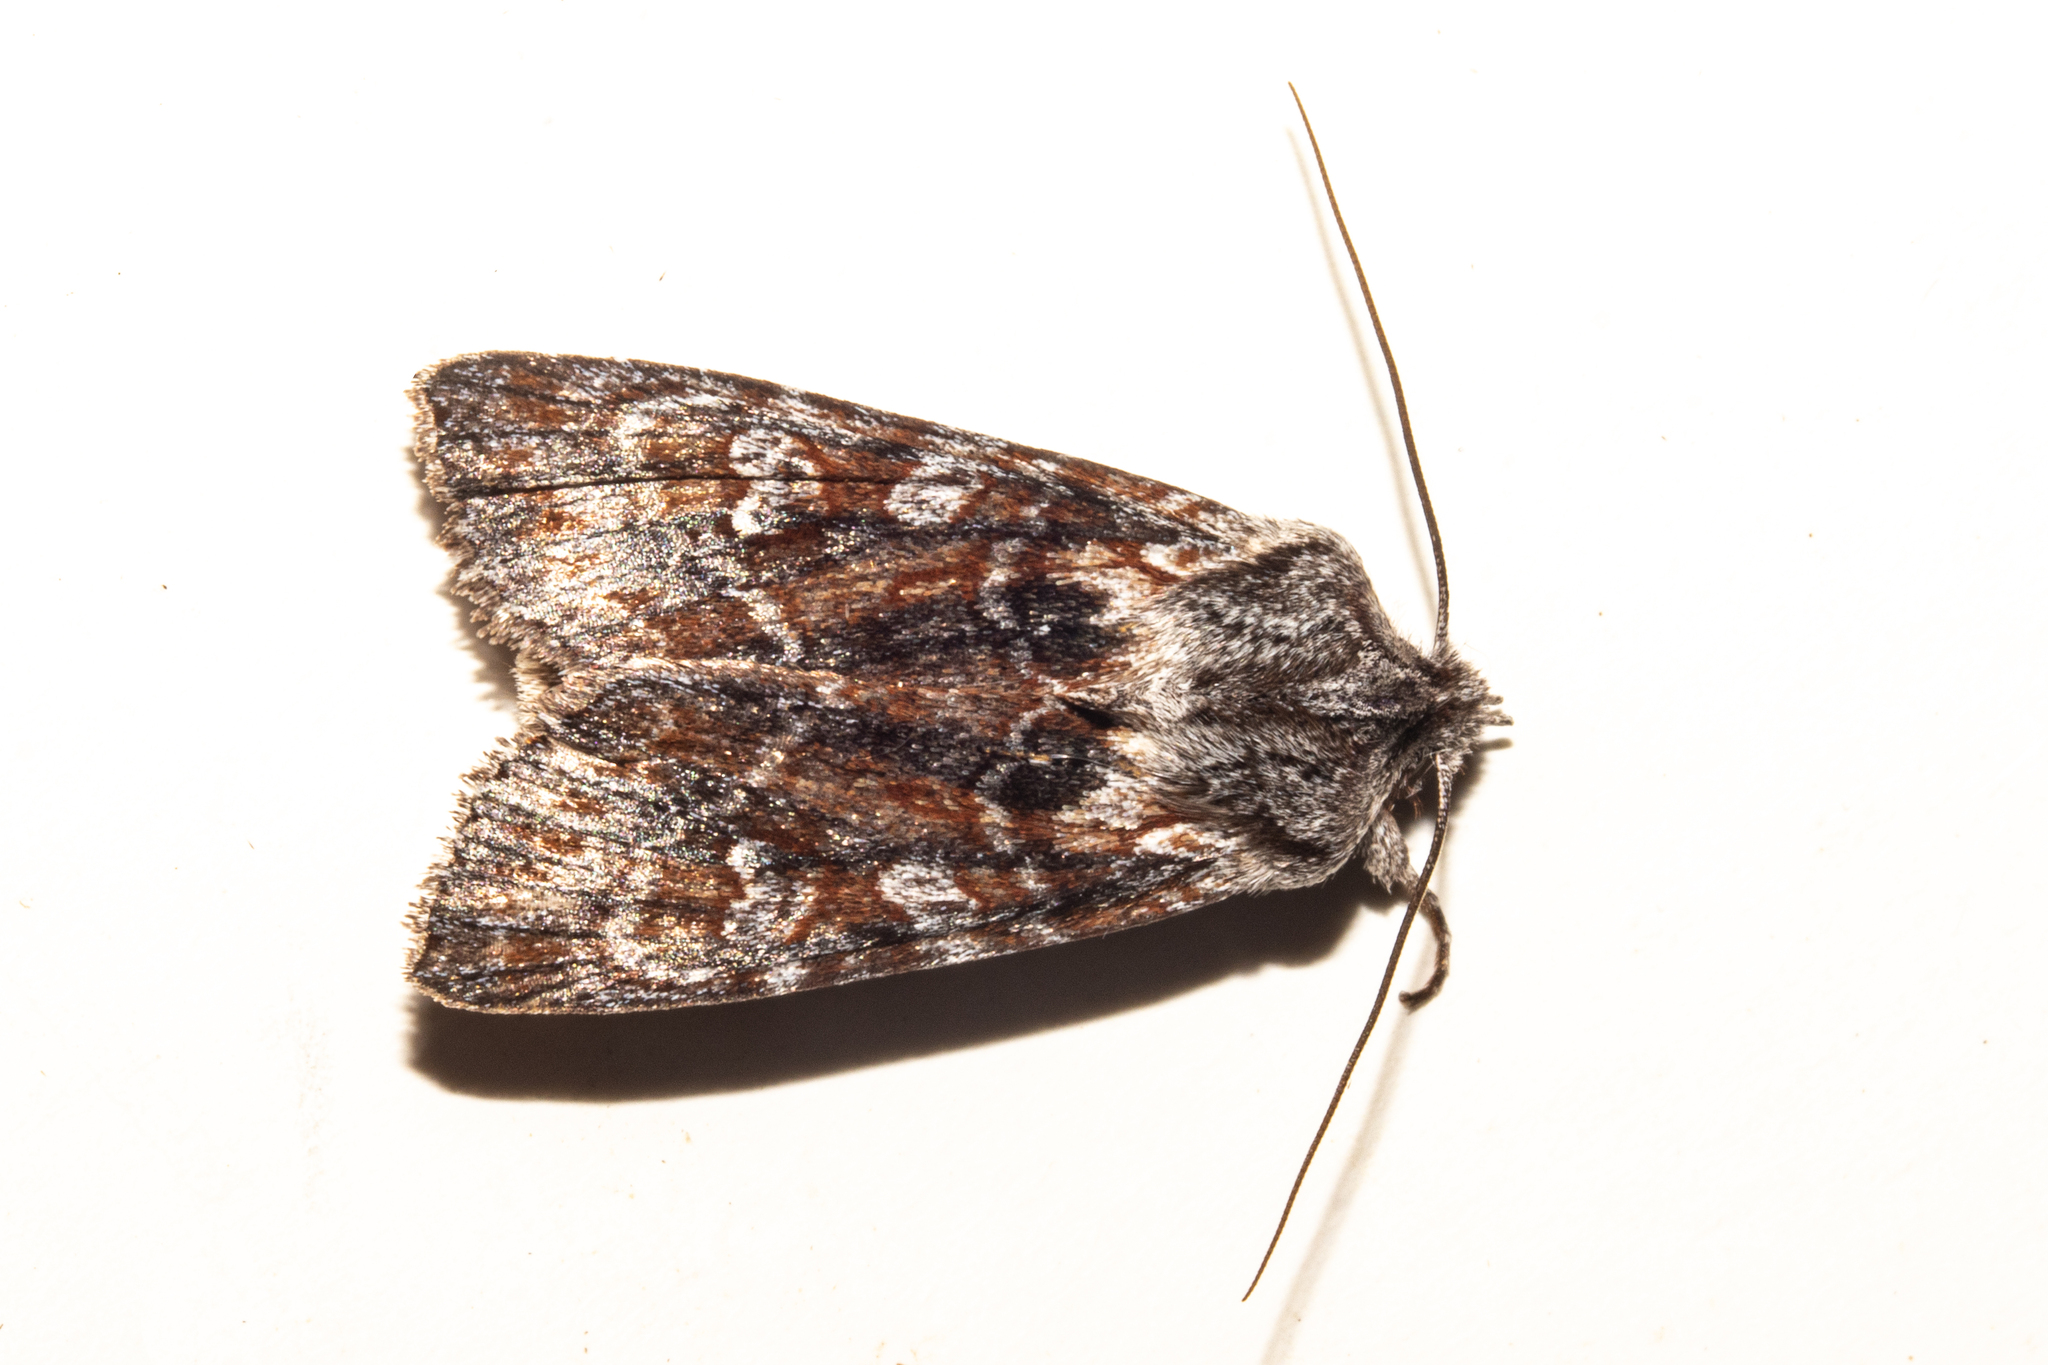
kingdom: Animalia
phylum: Arthropoda
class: Insecta
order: Lepidoptera
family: Noctuidae
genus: Physetica
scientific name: Physetica longstaffii
